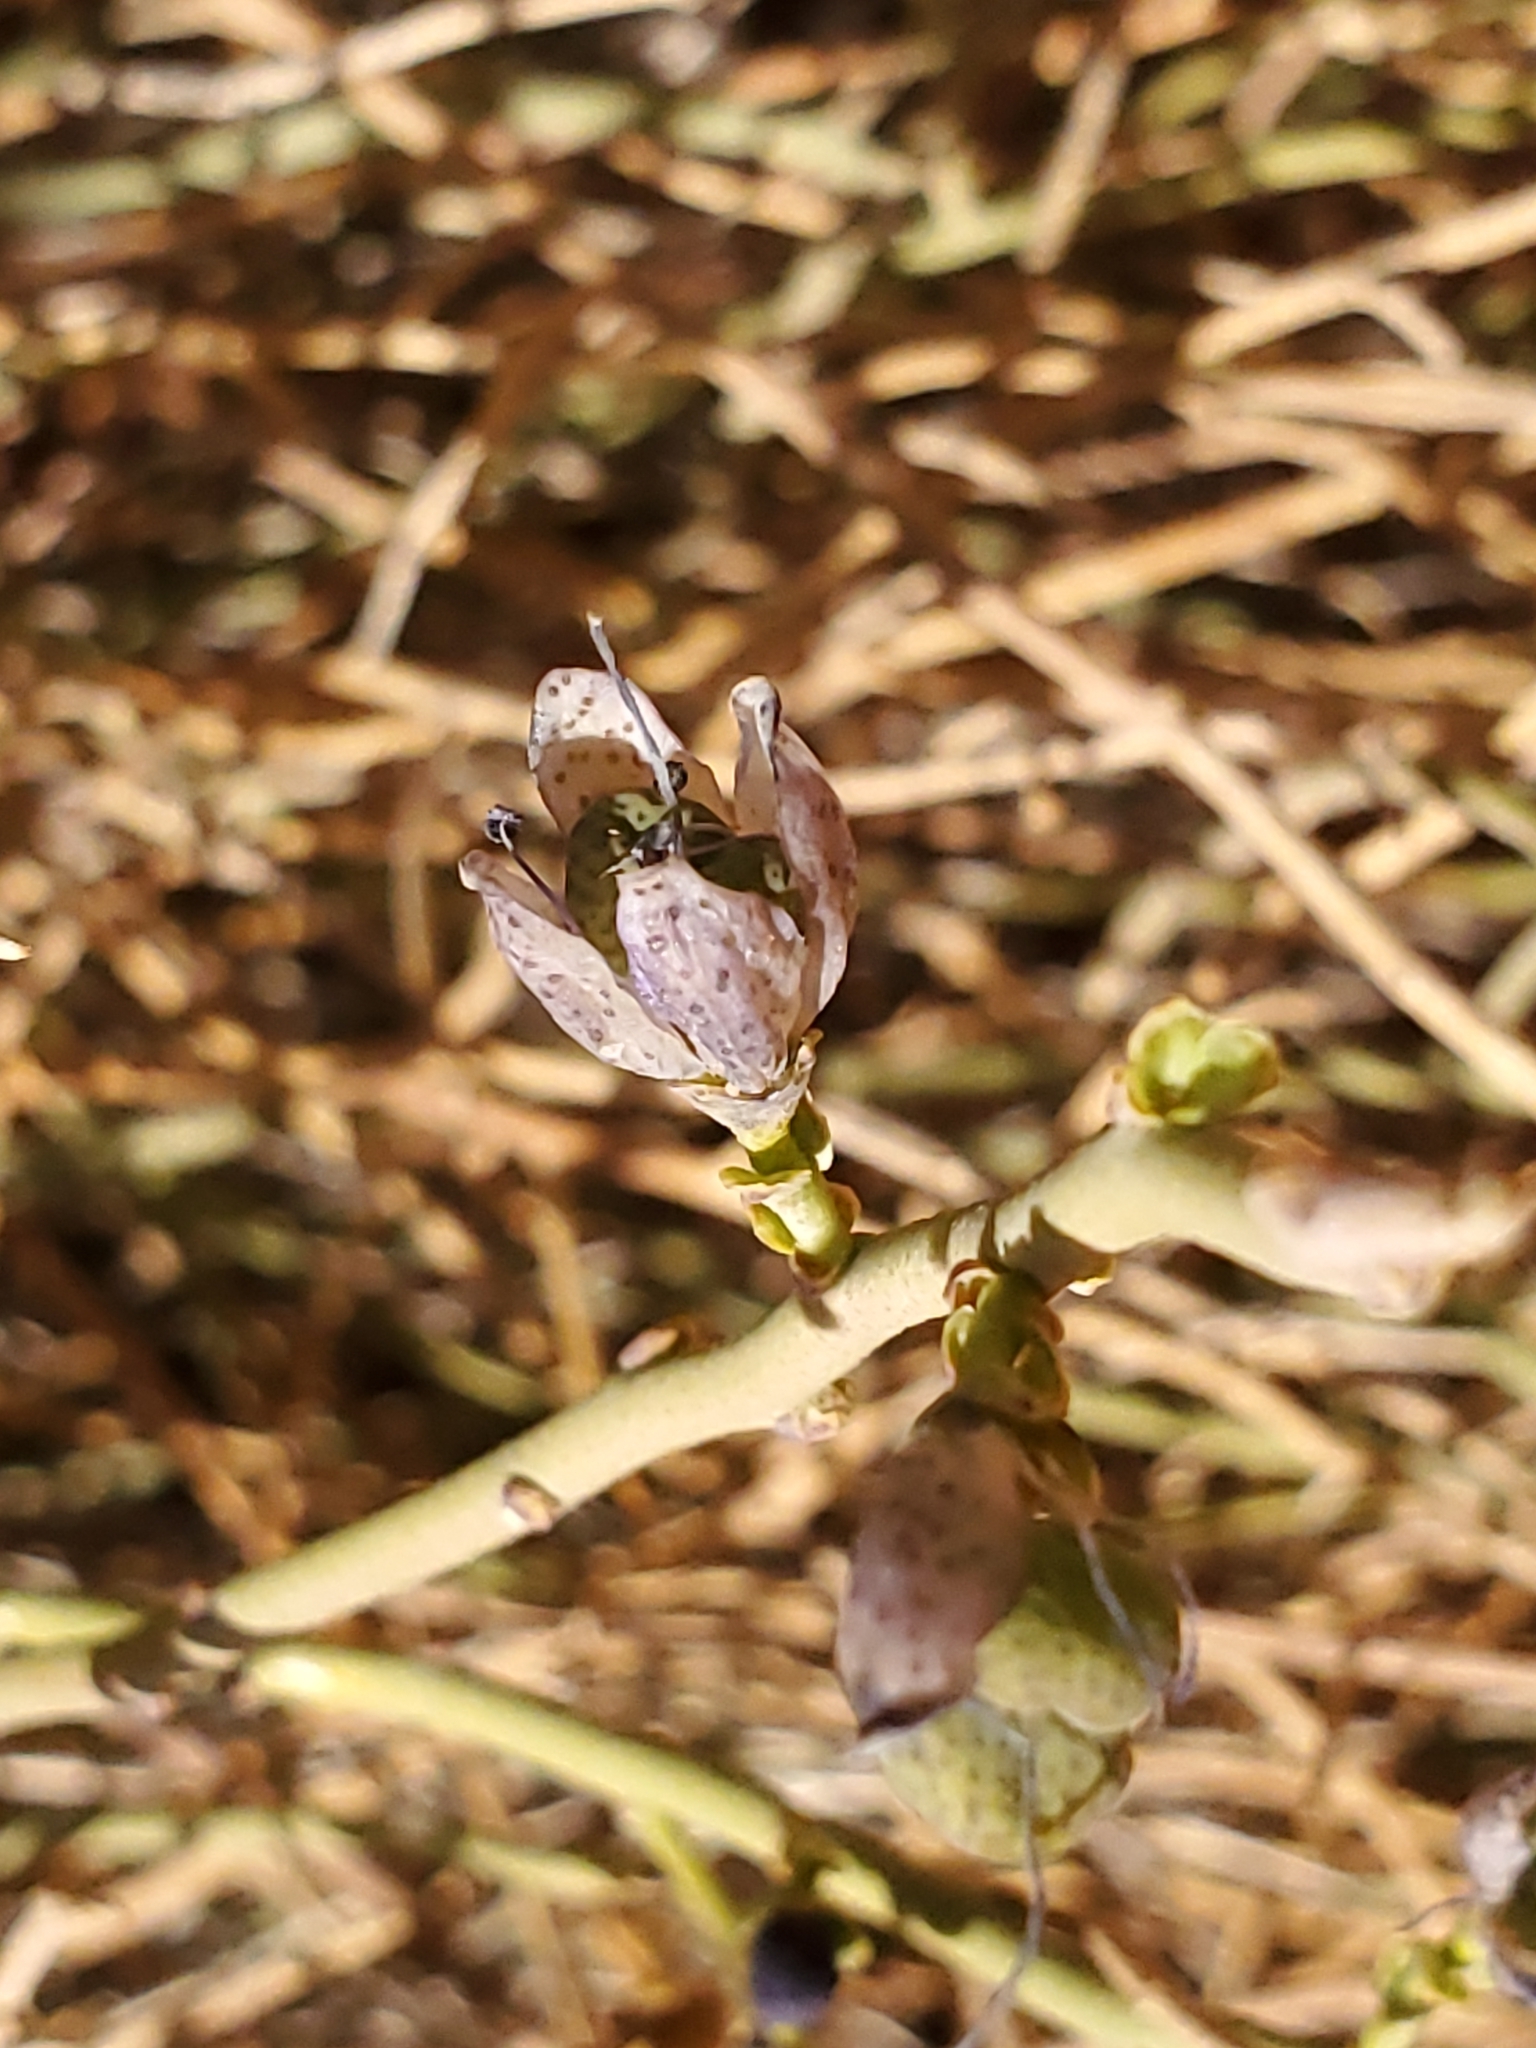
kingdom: Plantae
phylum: Tracheophyta
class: Magnoliopsida
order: Sapindales
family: Rutaceae
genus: Thamnosma
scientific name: Thamnosma montana
